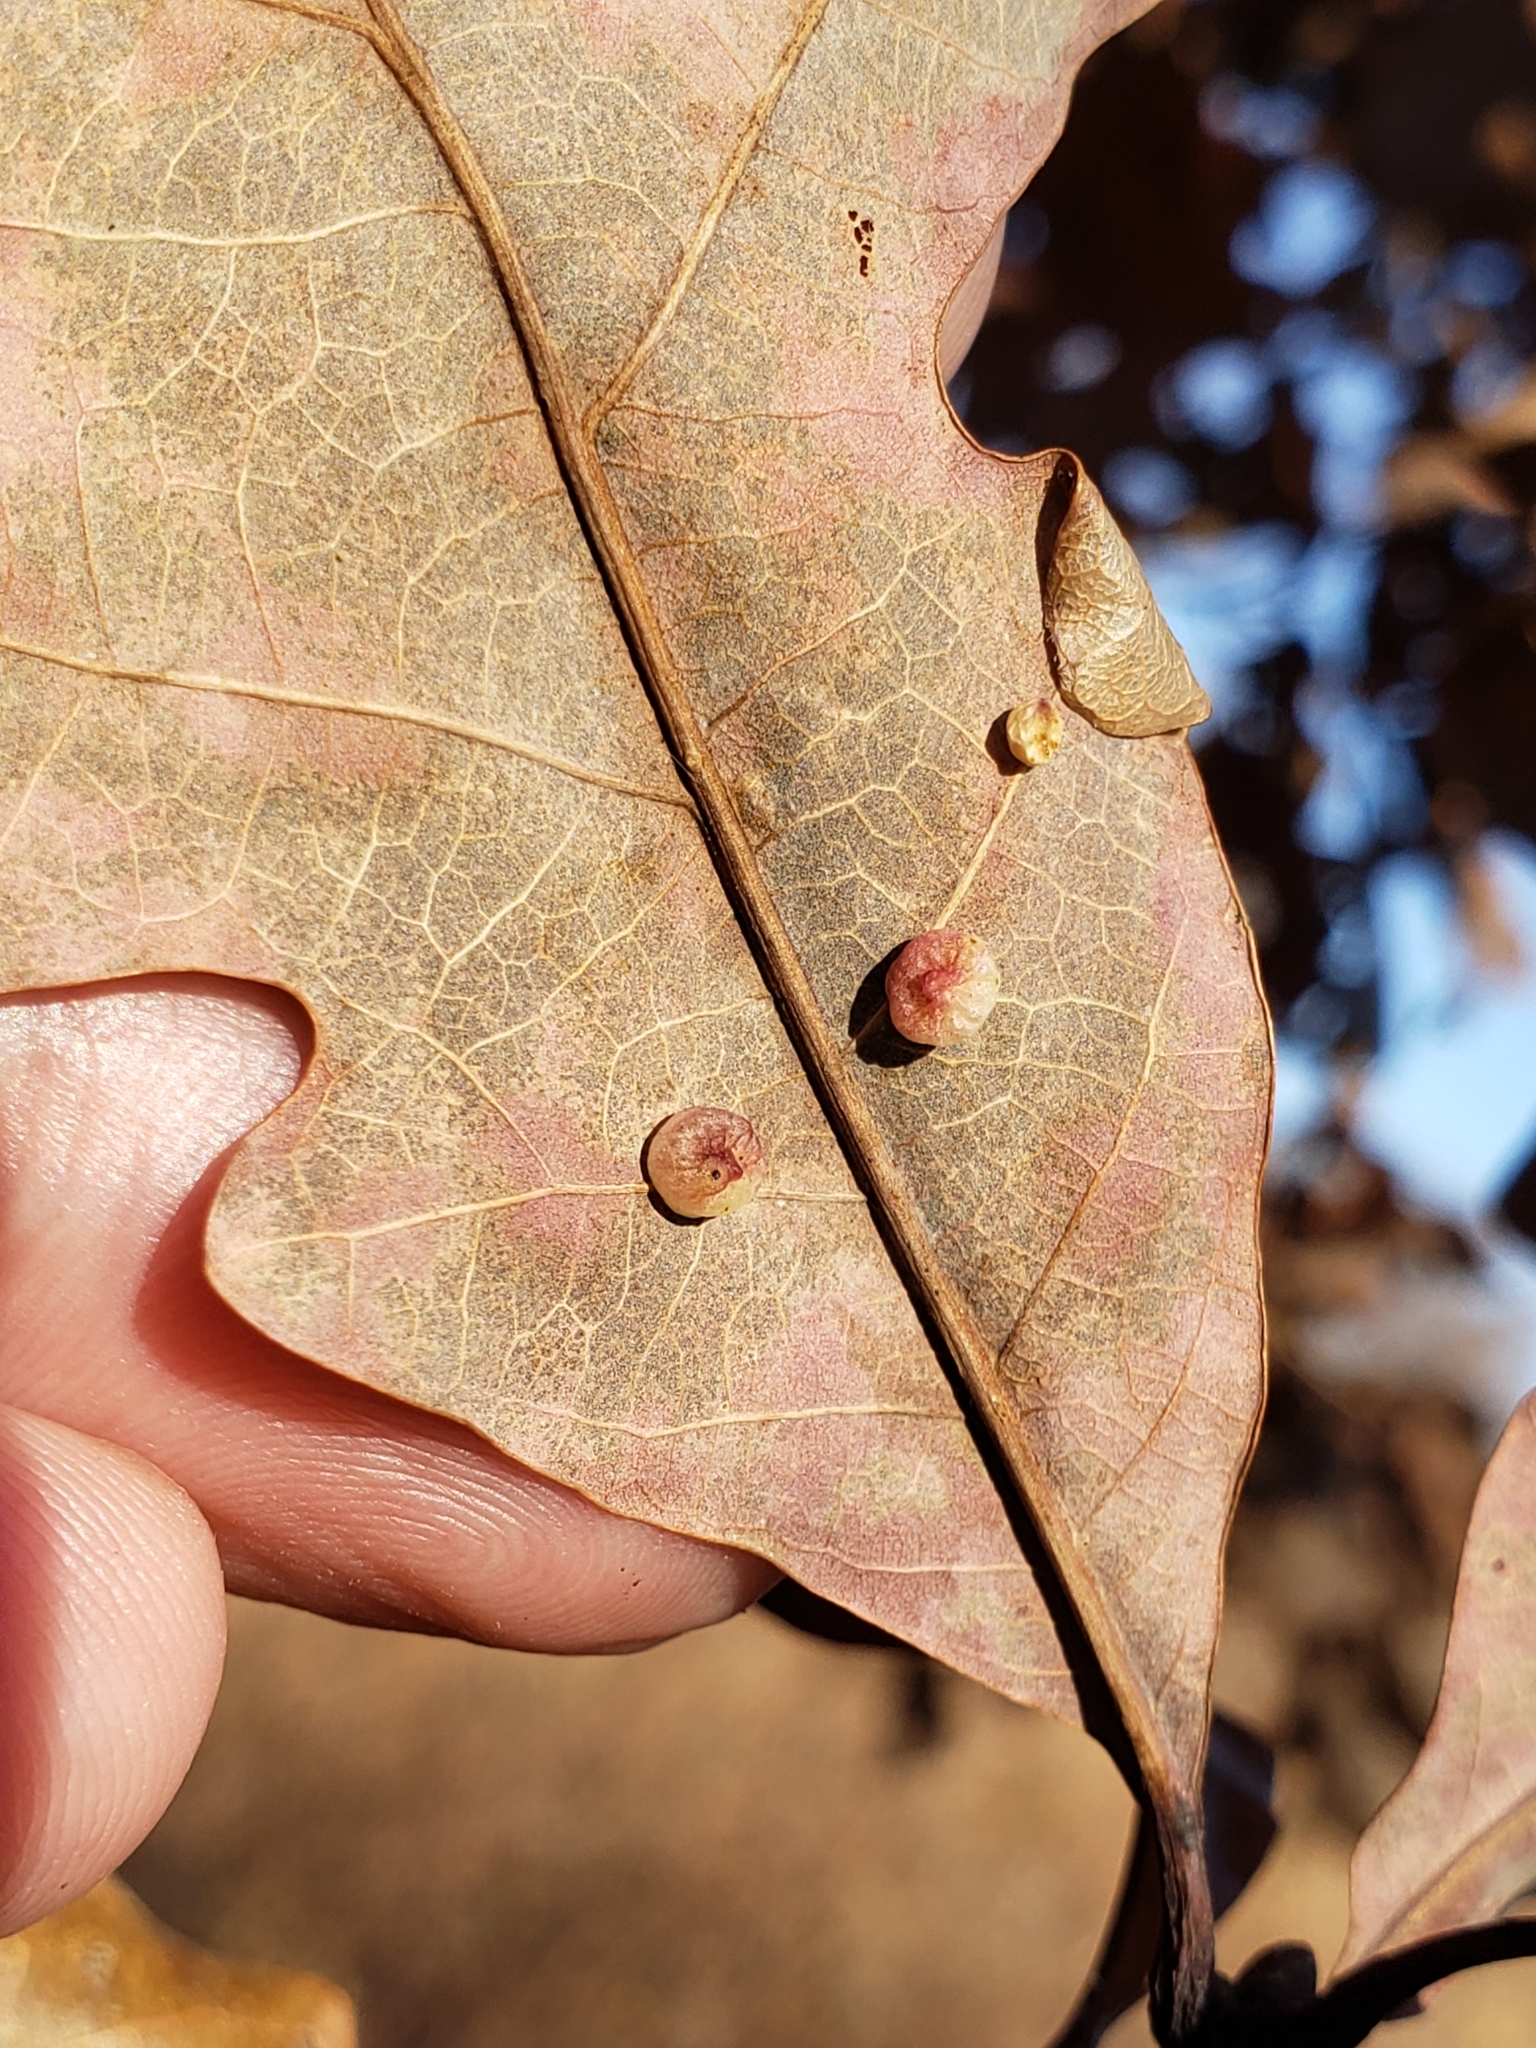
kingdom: Animalia
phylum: Arthropoda
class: Insecta
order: Hymenoptera
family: Cynipidae
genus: Zopheroteras
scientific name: Zopheroteras
